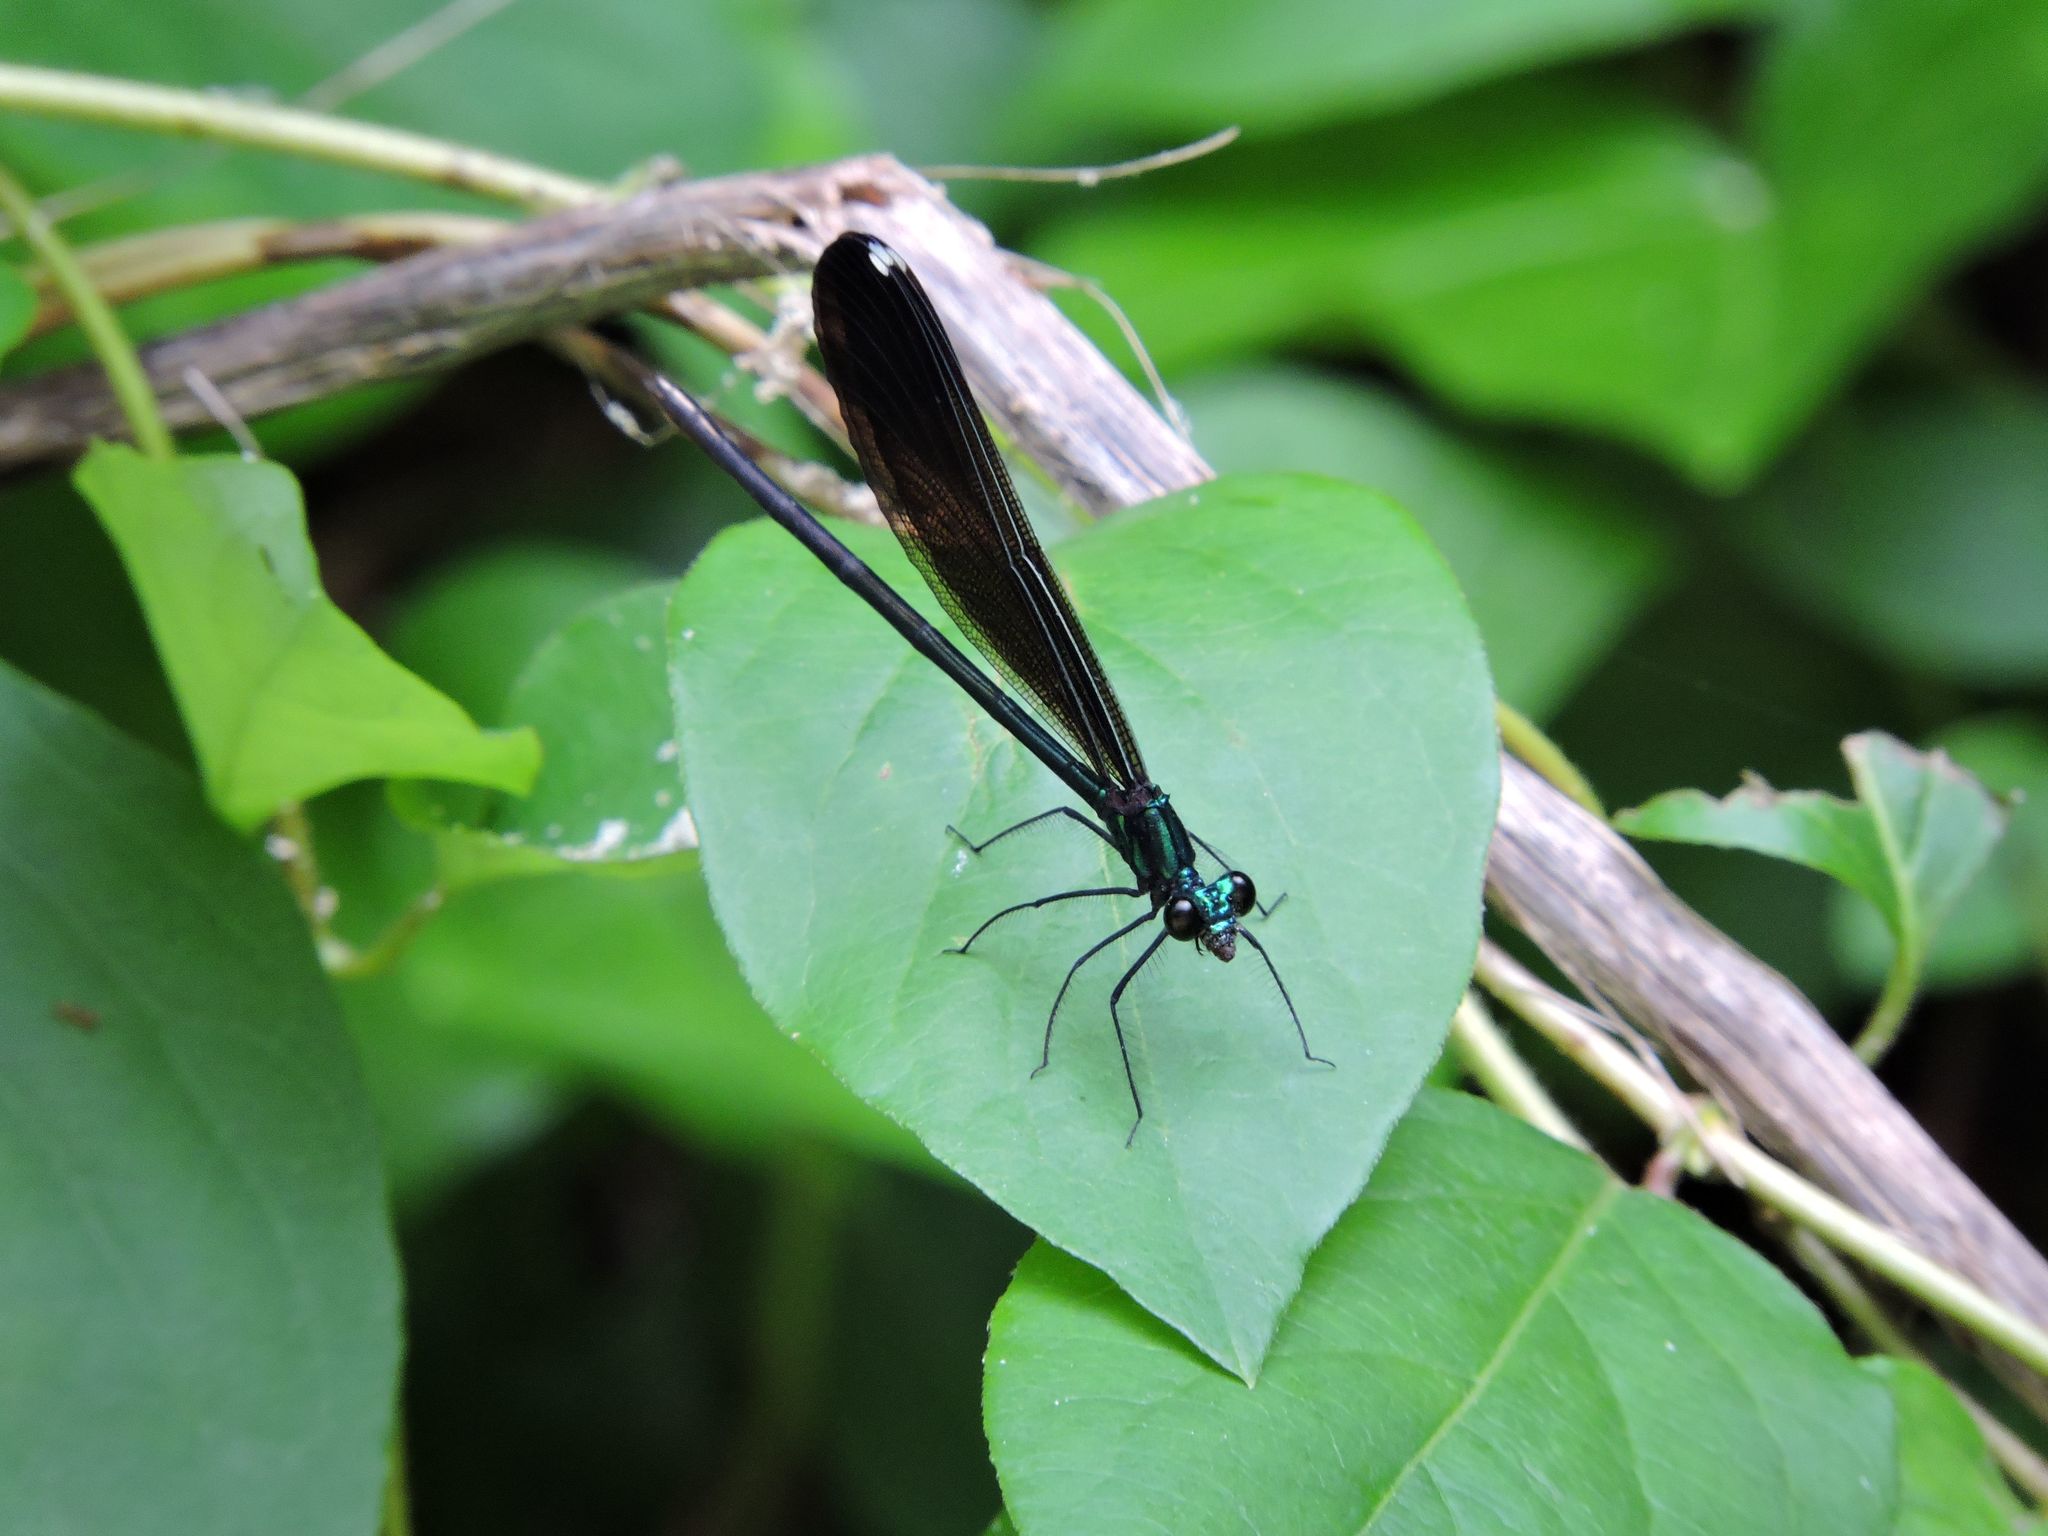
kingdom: Animalia
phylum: Arthropoda
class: Insecta
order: Odonata
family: Calopterygidae
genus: Calopteryx
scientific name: Calopteryx maculata
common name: Ebony jewelwing
